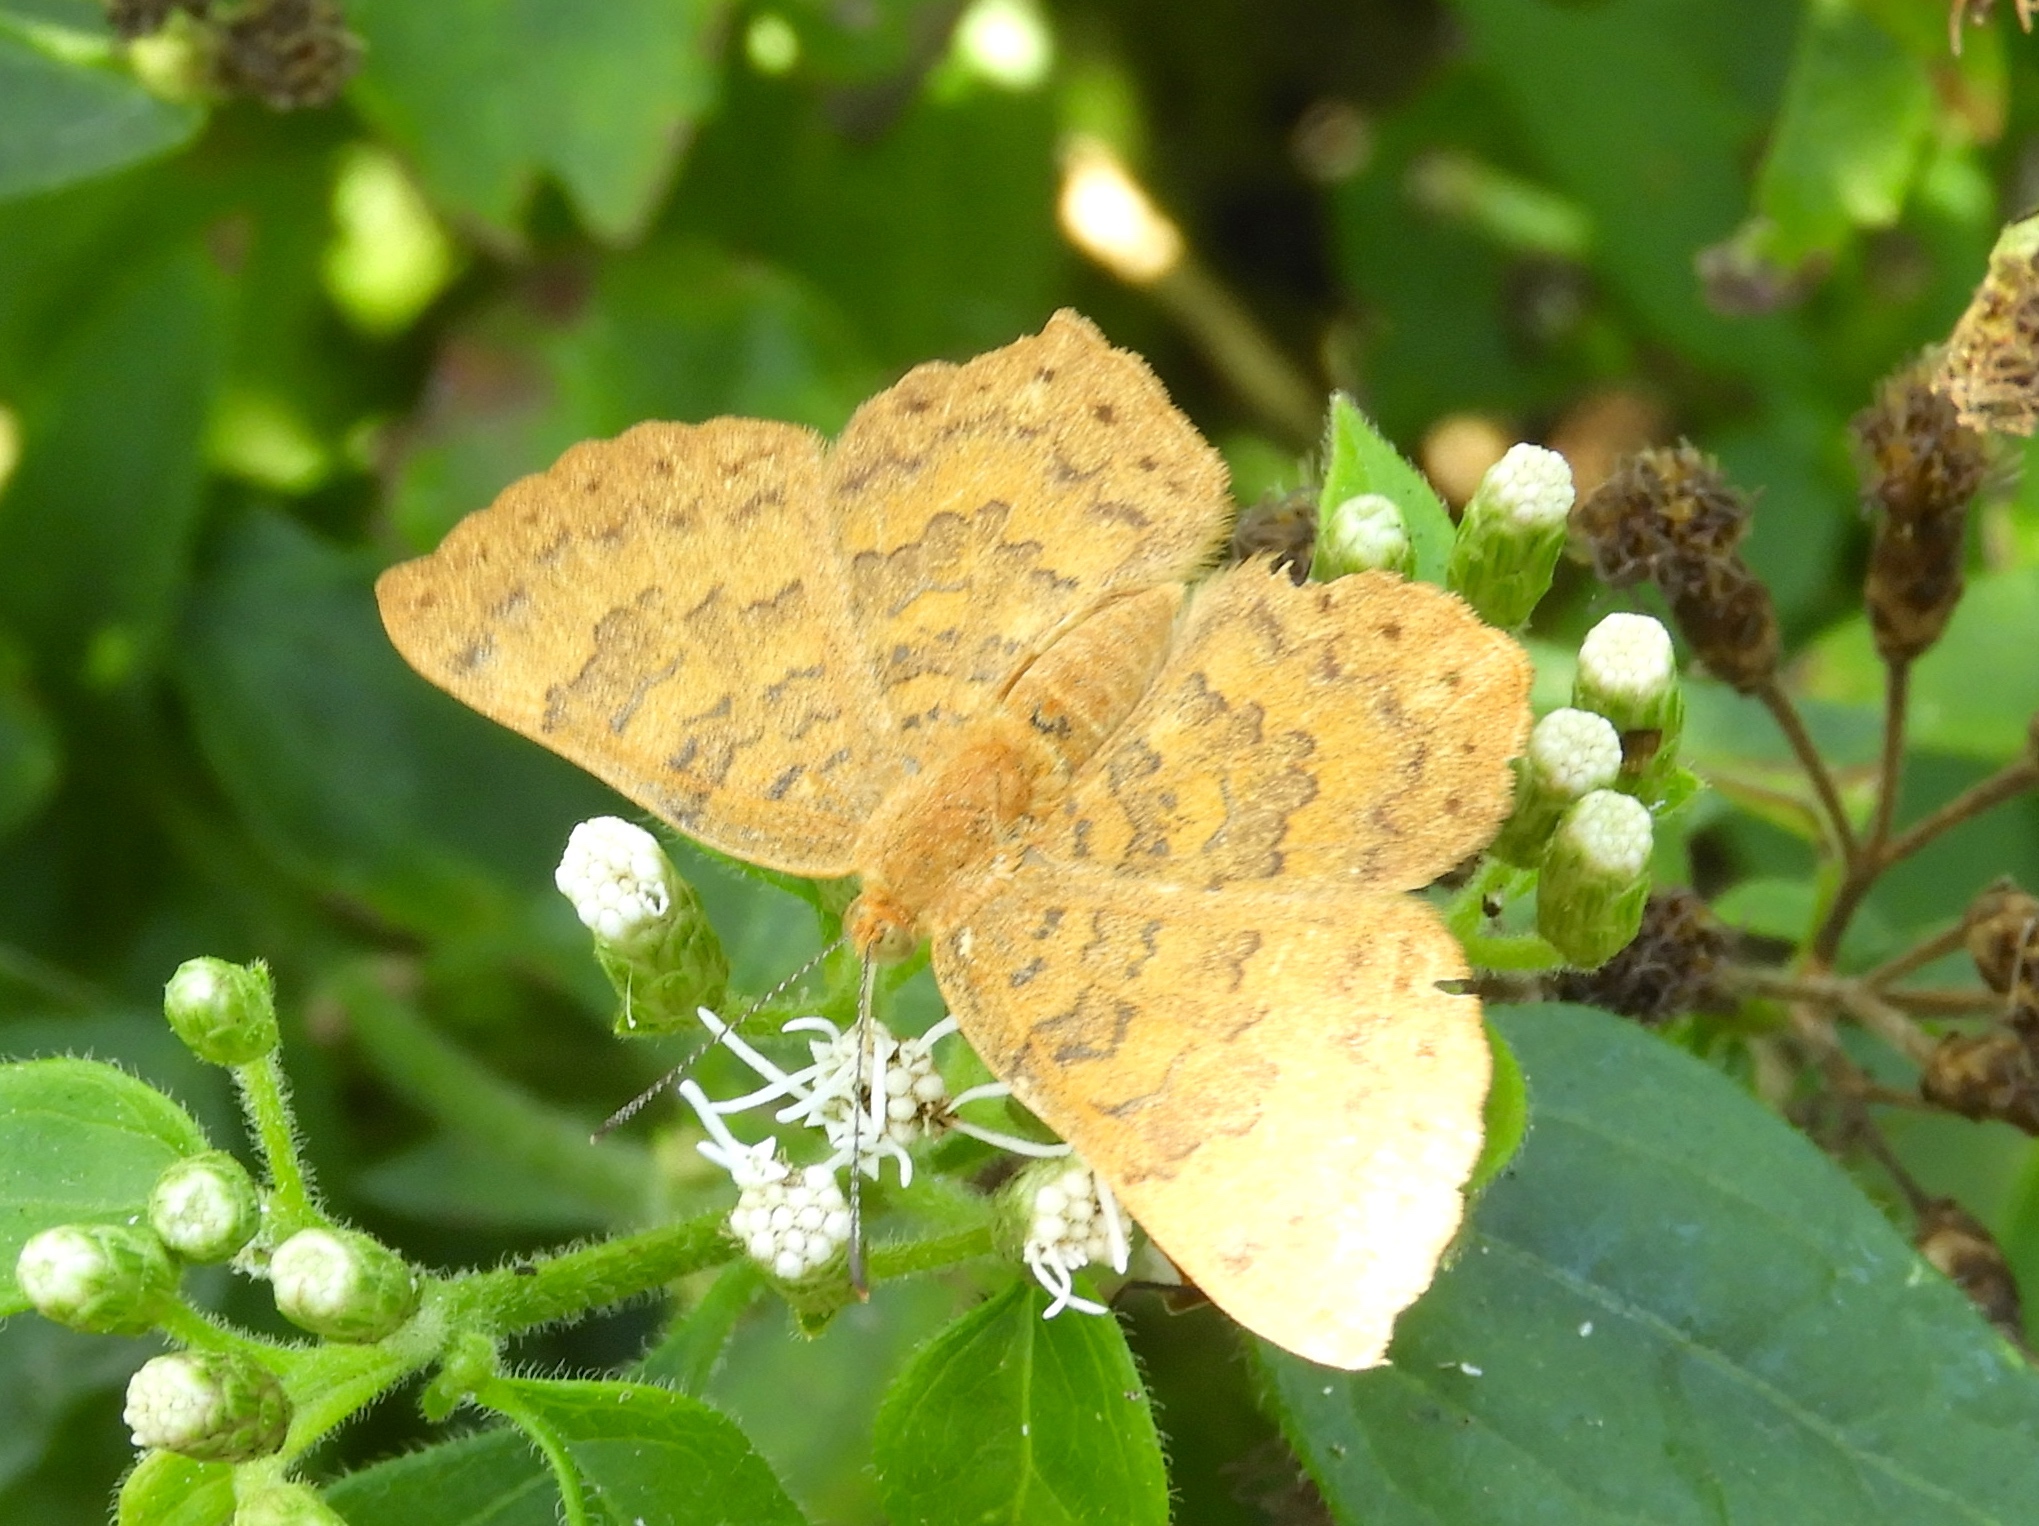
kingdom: Animalia
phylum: Arthropoda
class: Insecta
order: Lepidoptera
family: Lycaenidae
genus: Emesis
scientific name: Emesis
